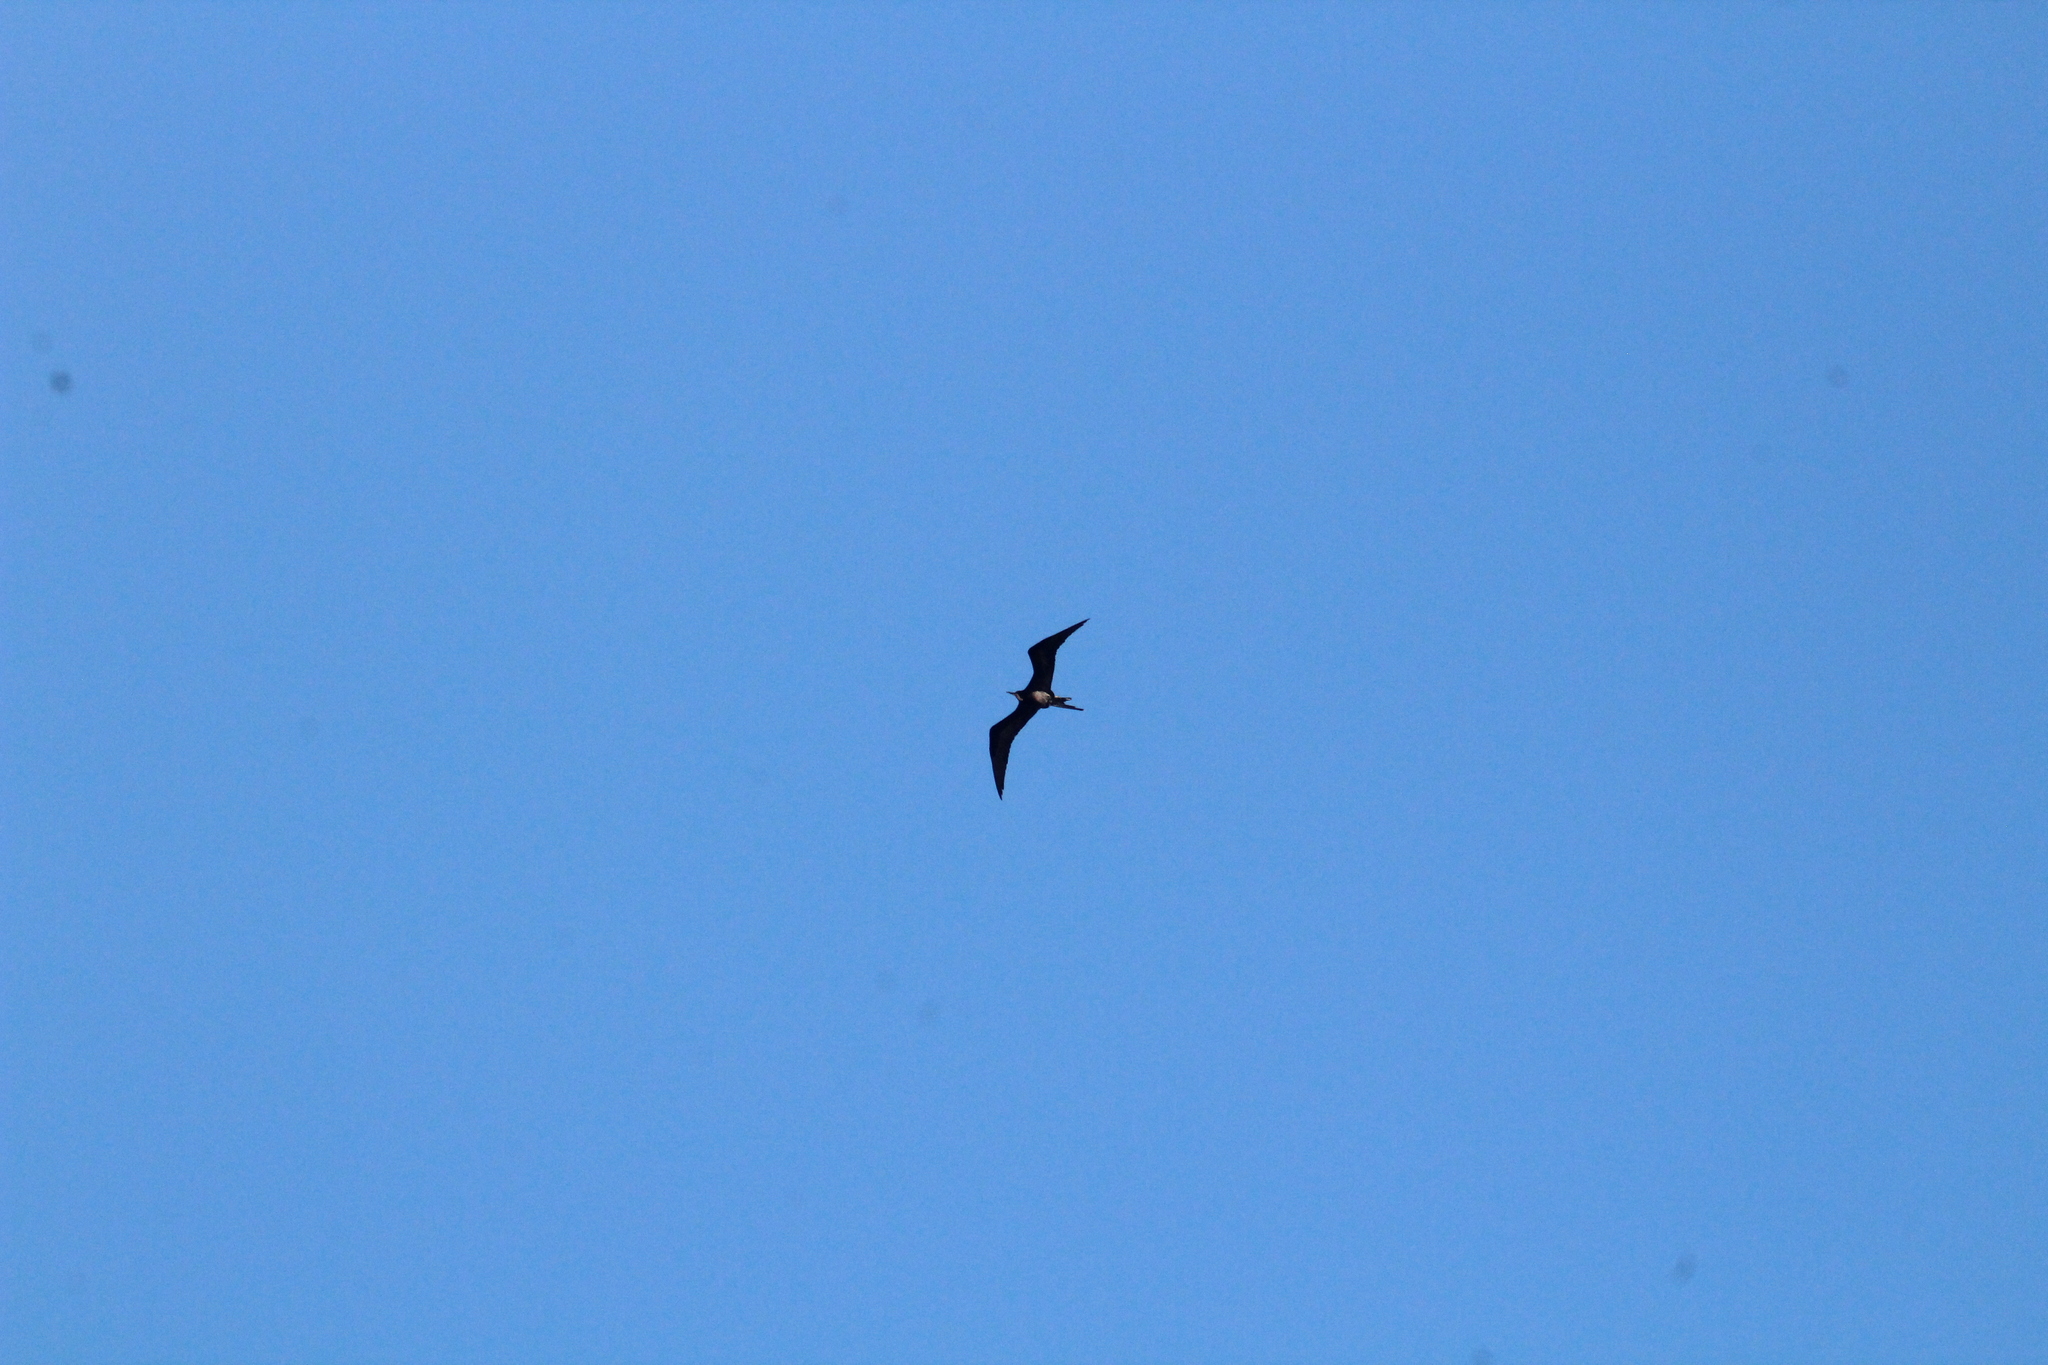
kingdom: Animalia
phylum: Chordata
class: Aves
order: Suliformes
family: Fregatidae
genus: Fregata
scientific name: Fregata magnificens
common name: Magnificent frigatebird
